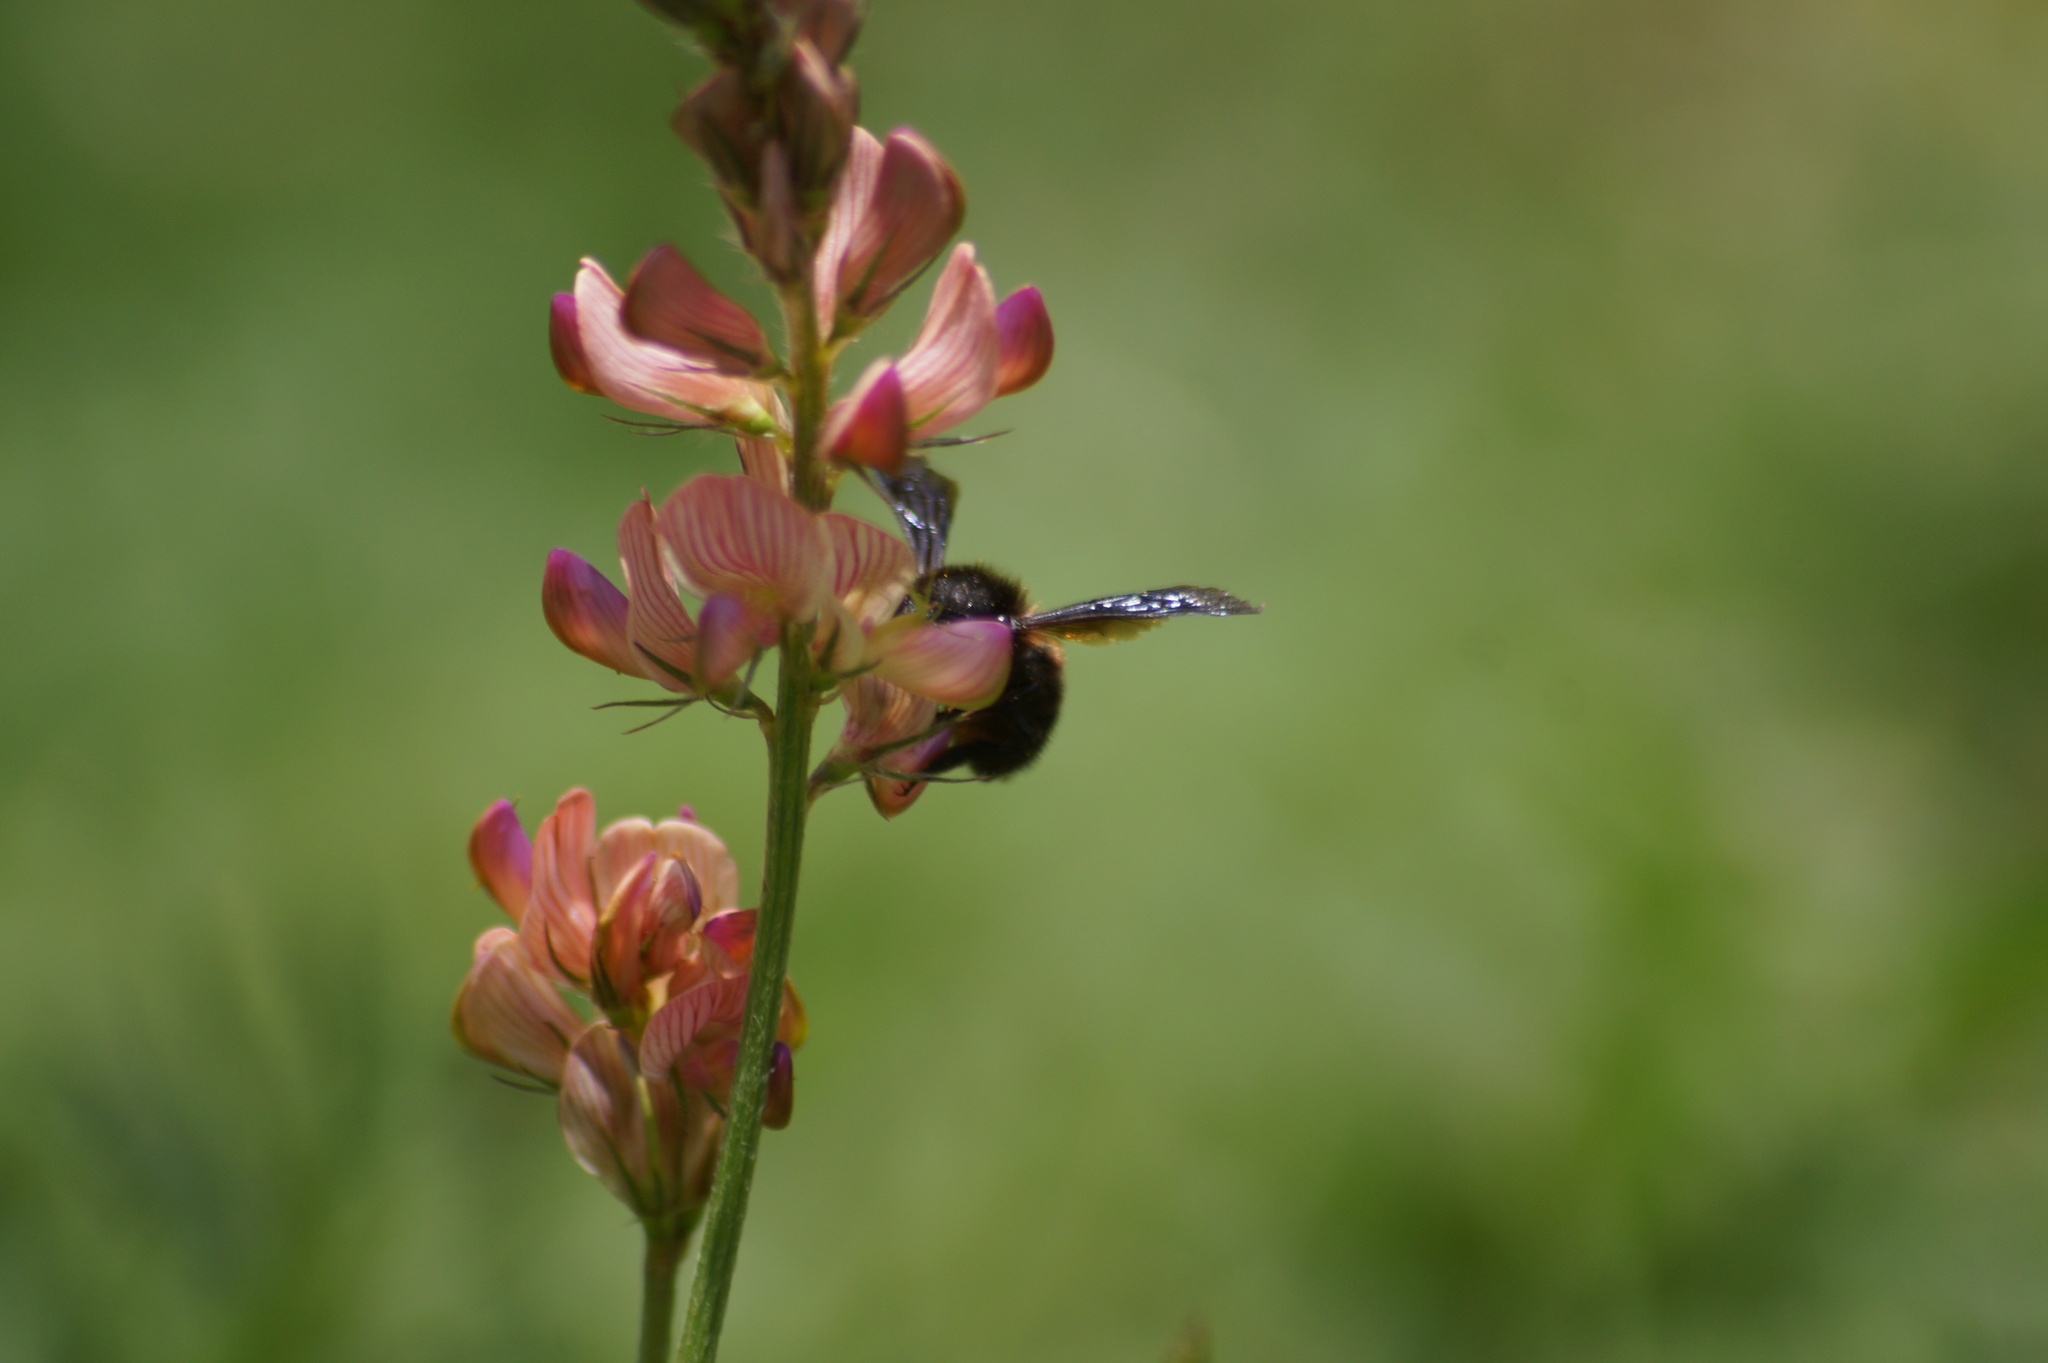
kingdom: Animalia
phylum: Arthropoda
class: Insecta
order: Hymenoptera
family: Megachilidae
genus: Megachile
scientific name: Megachile parietina
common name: Black mud bee
